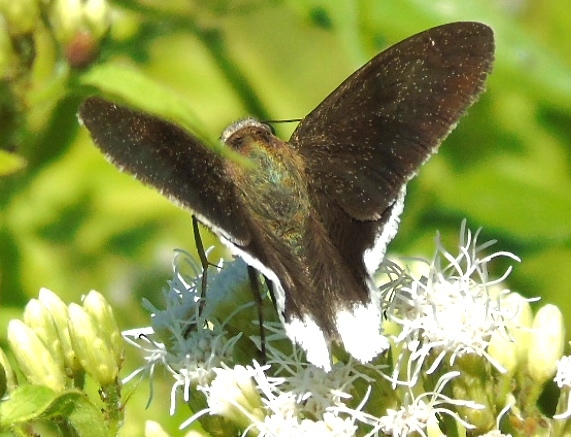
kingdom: Animalia
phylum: Arthropoda
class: Insecta
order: Lepidoptera
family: Hesperiidae
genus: Achalarus
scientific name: Achalarus
